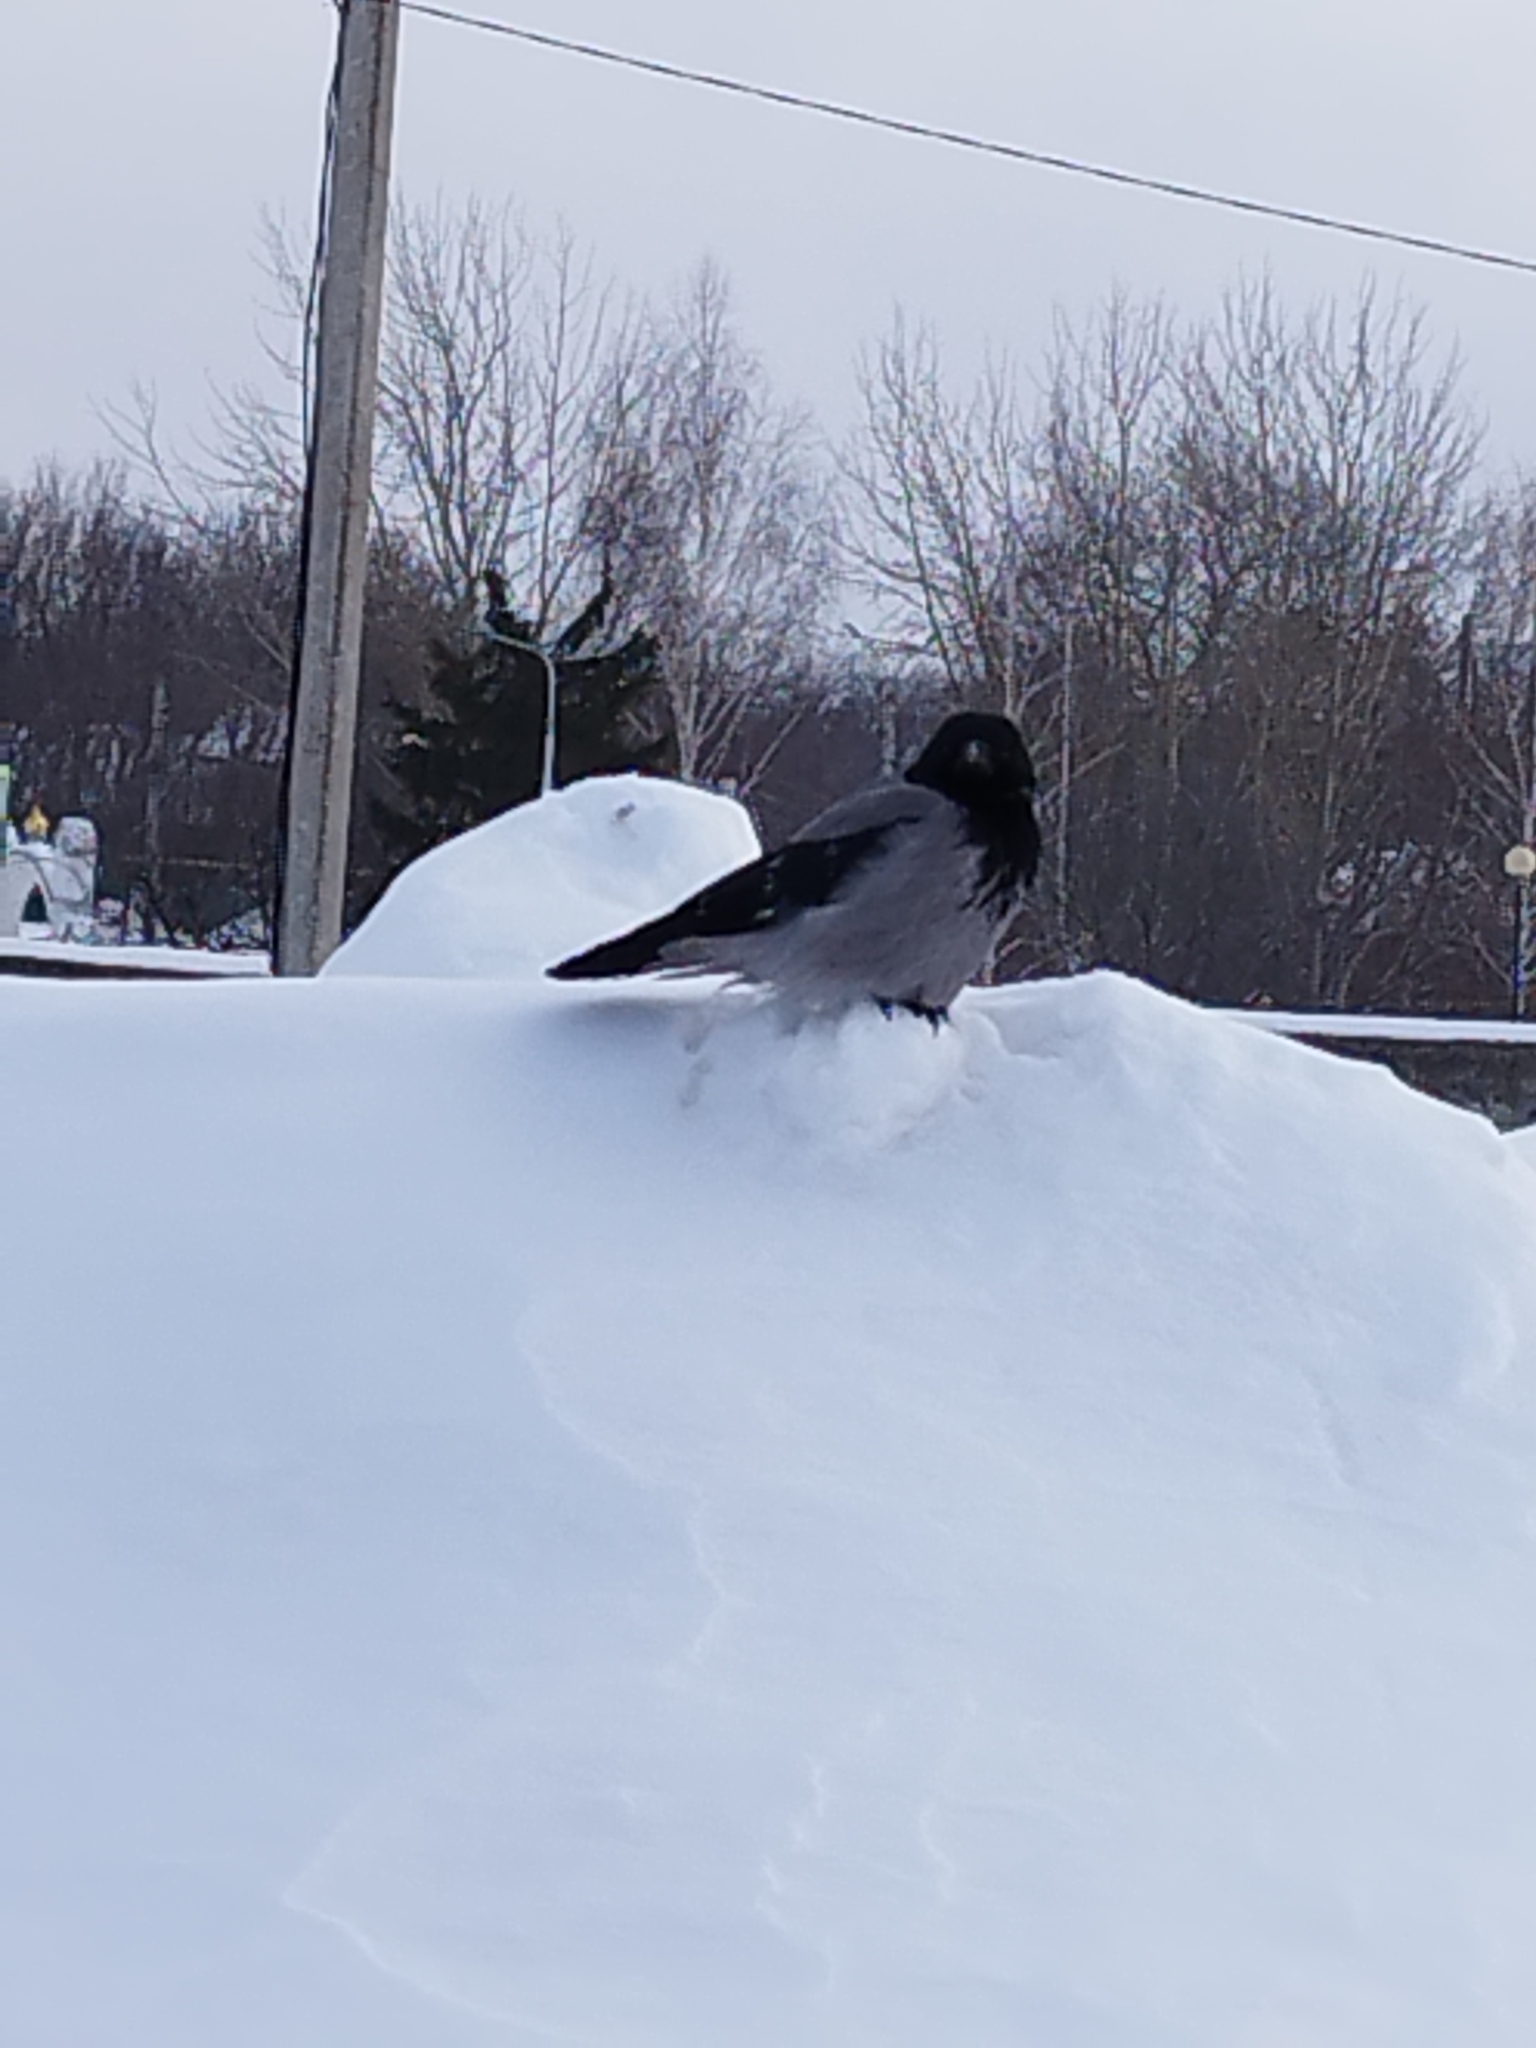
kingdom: Animalia
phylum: Chordata
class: Aves
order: Passeriformes
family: Corvidae
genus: Corvus
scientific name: Corvus cornix
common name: Hooded crow
